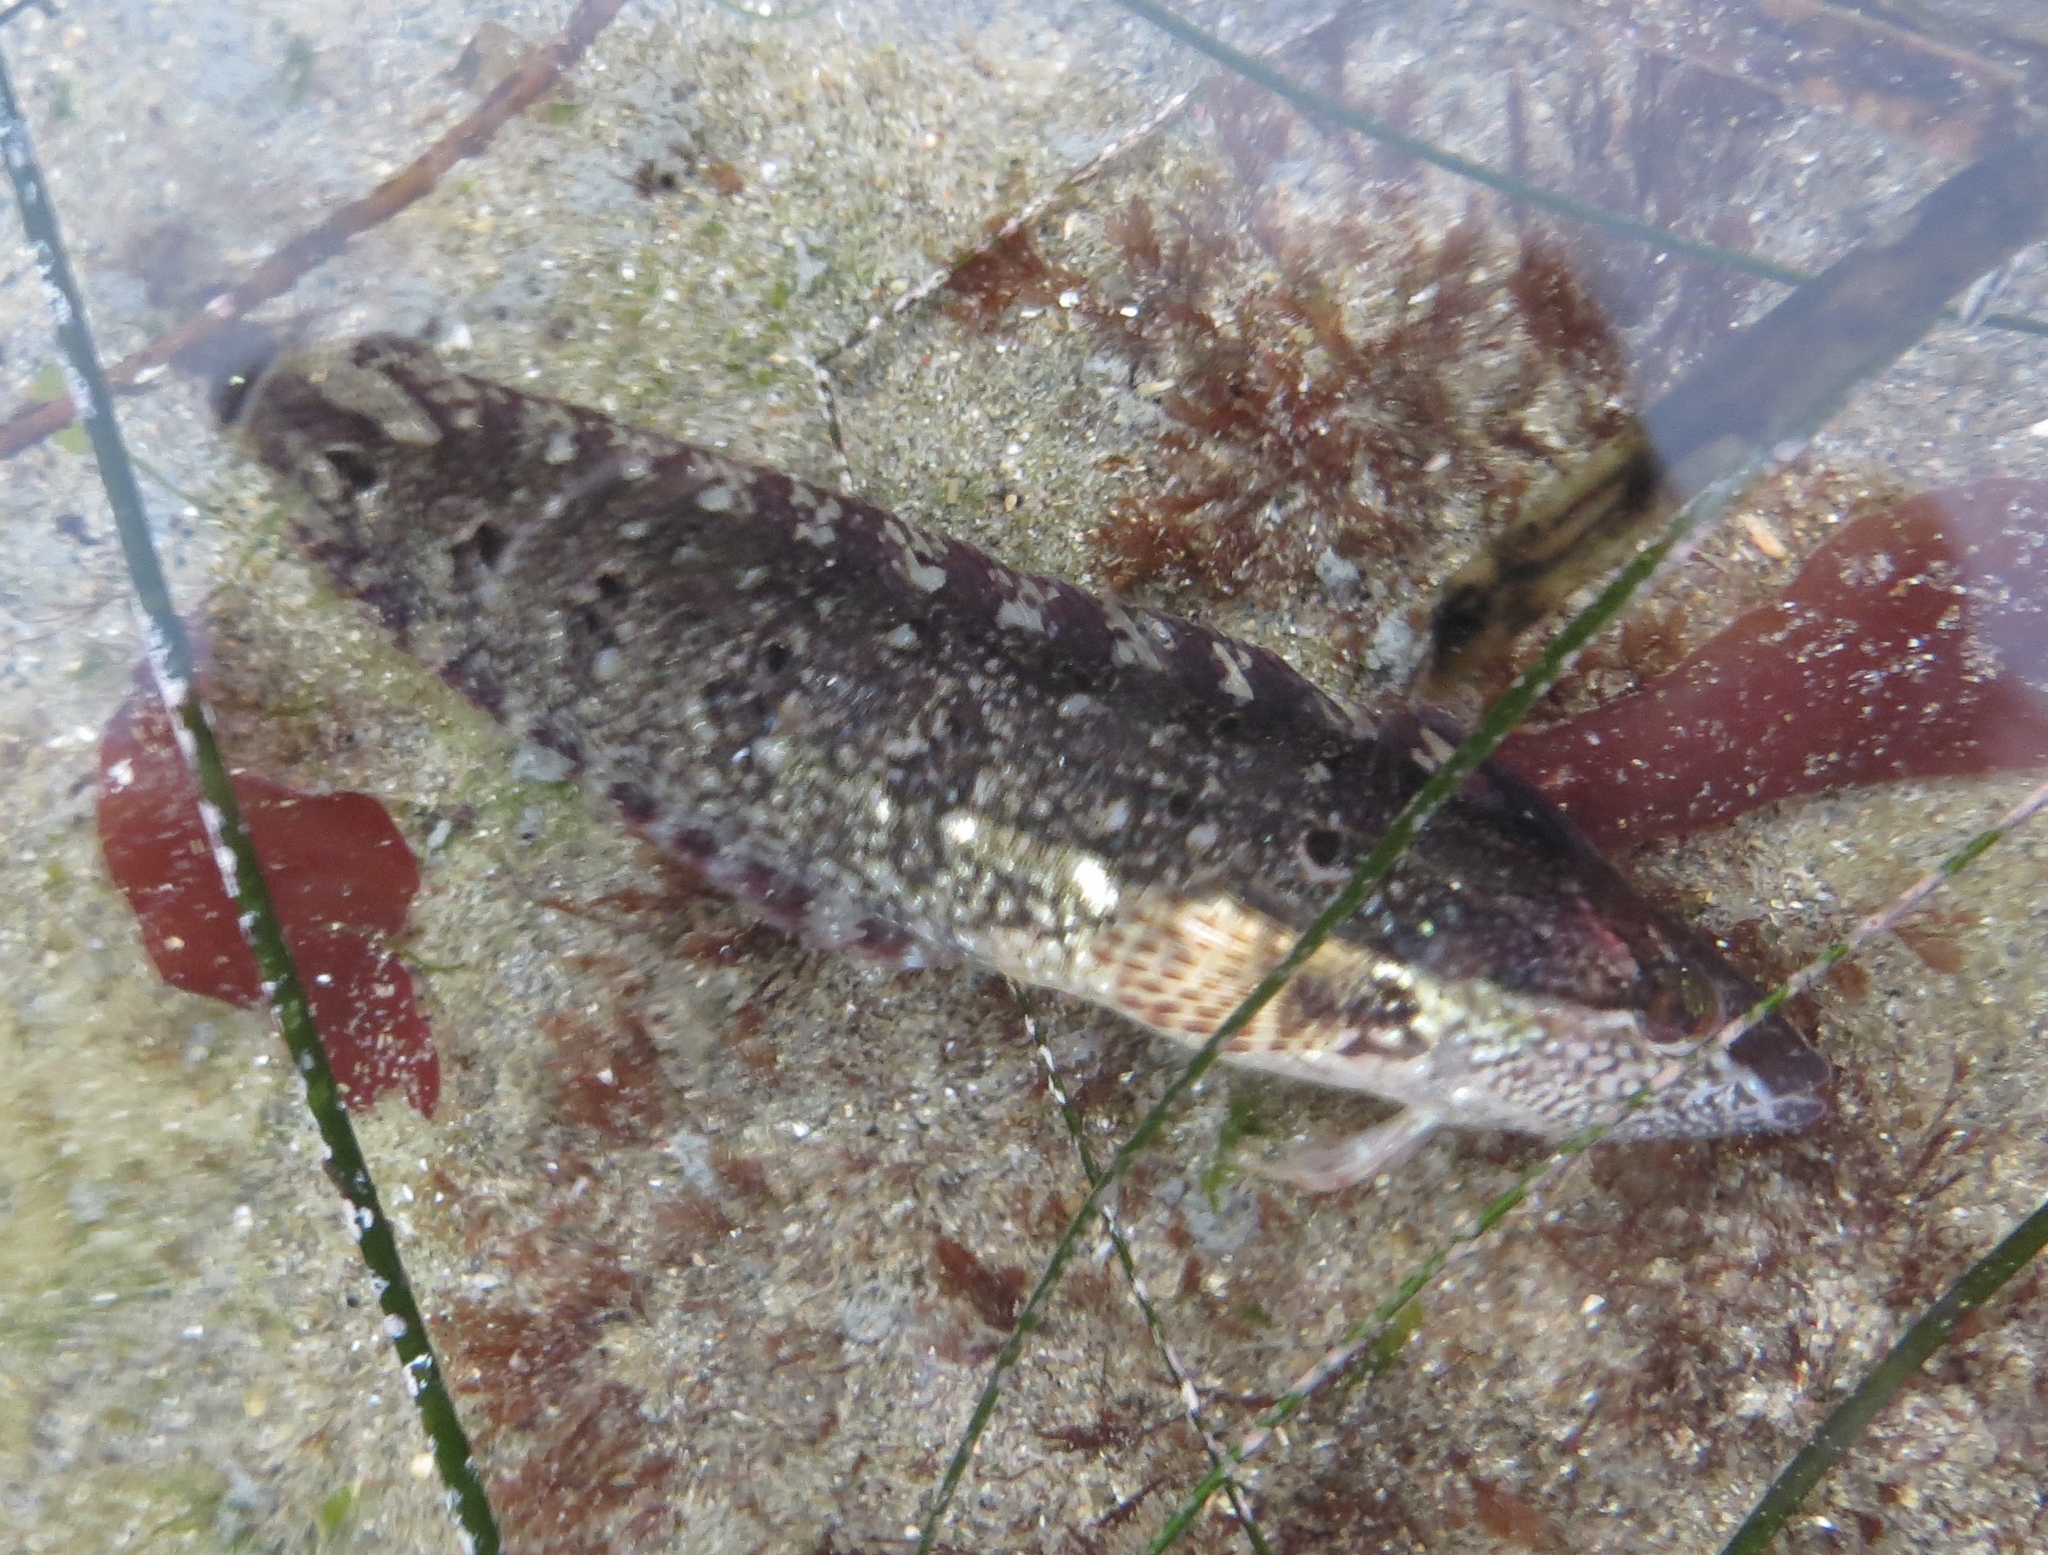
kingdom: Animalia
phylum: Chordata
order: Perciformes
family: Clinidae
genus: Gibbonsia
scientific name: Gibbonsia metzi
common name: Striped kelpfish
